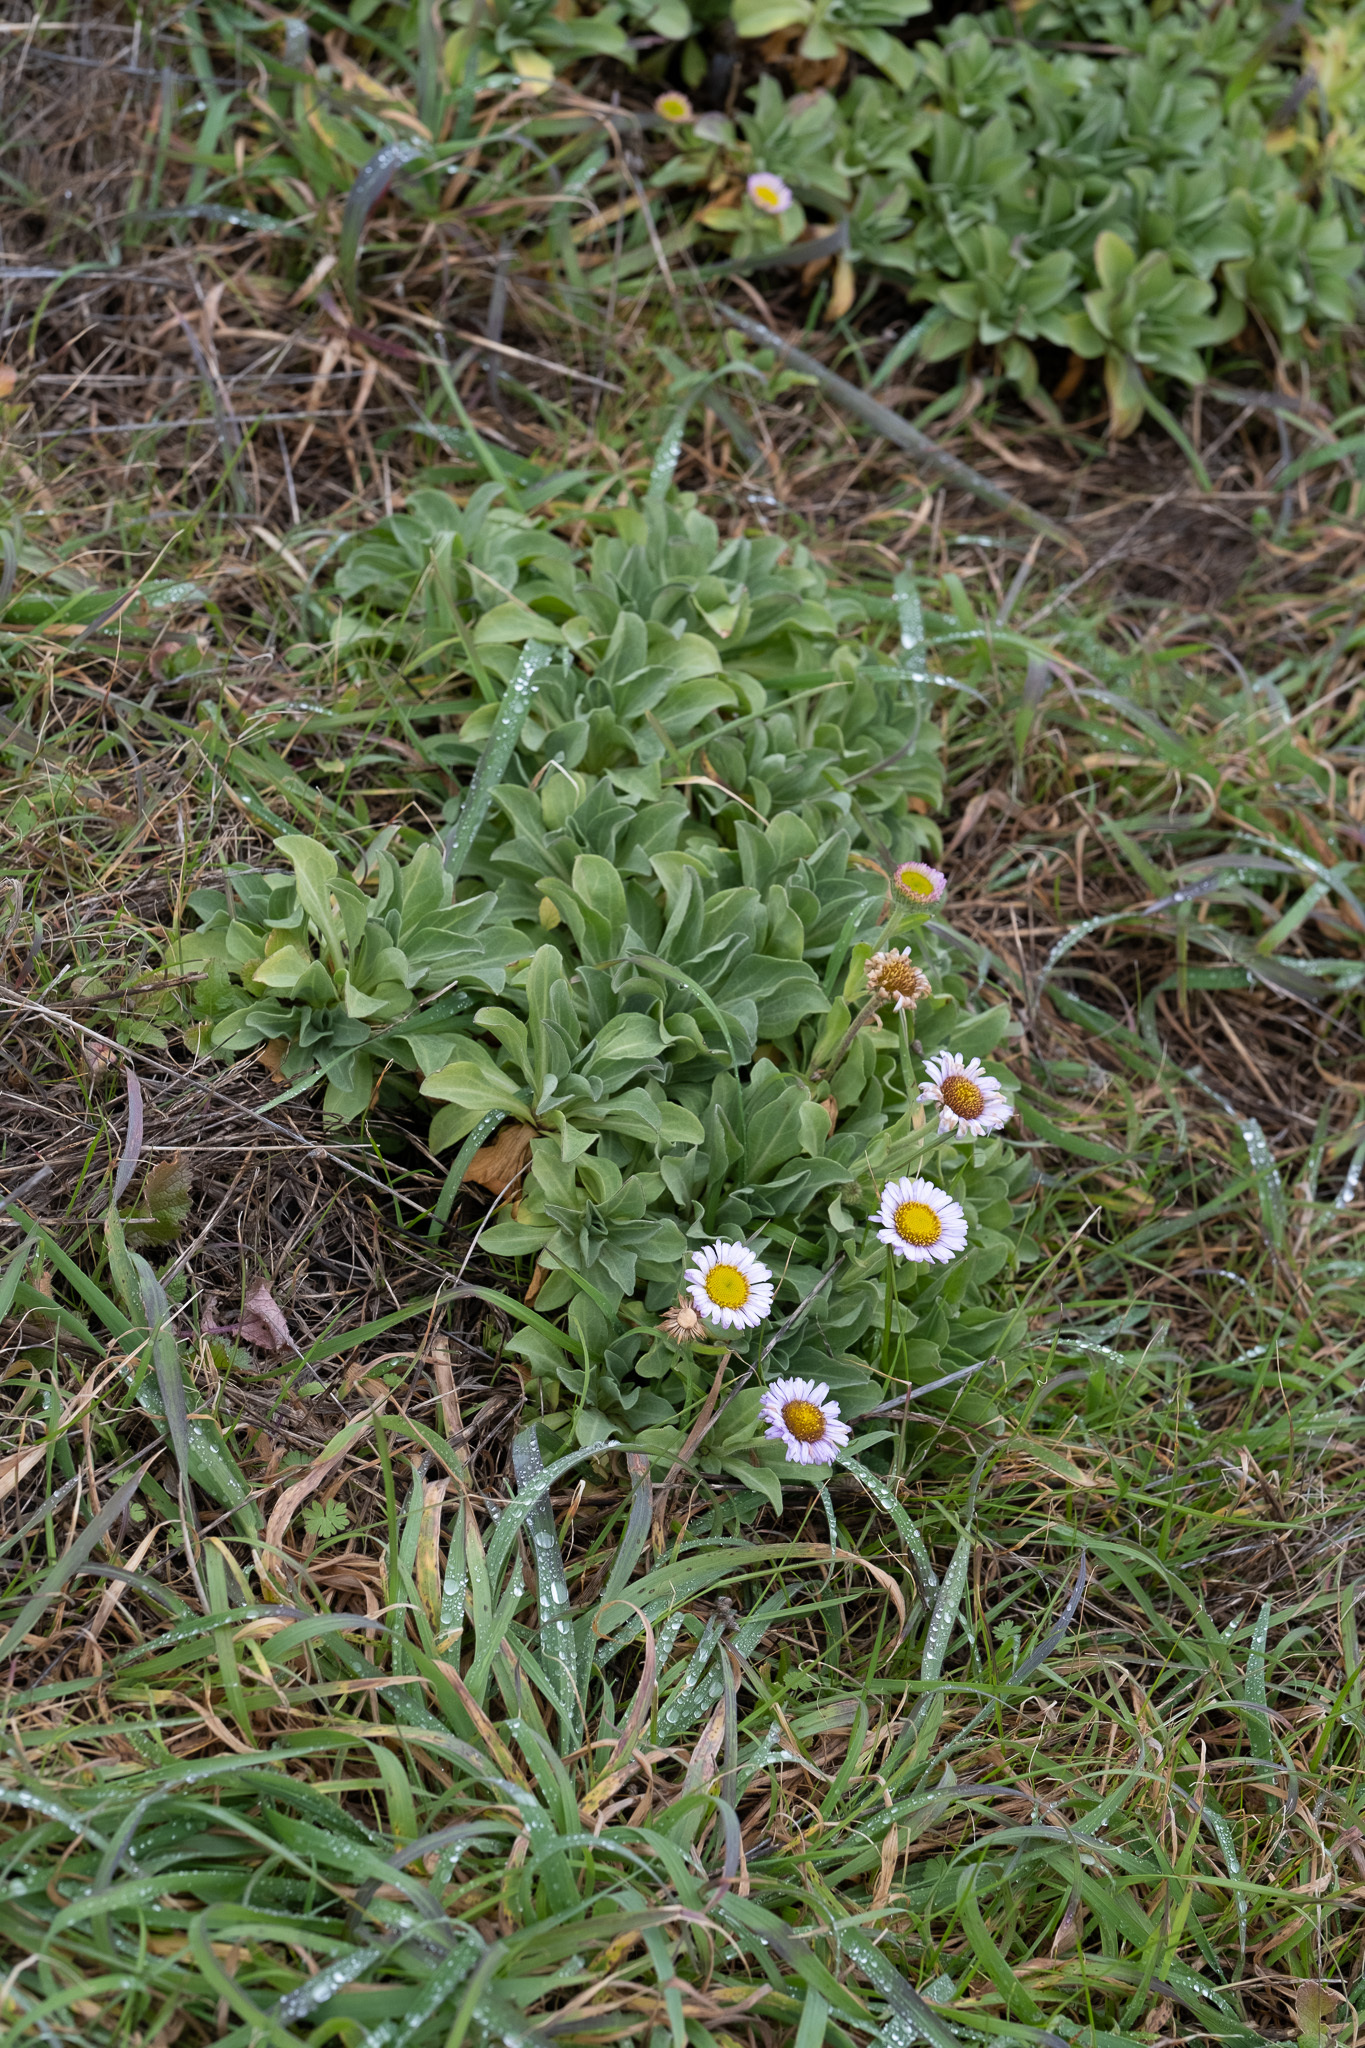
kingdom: Plantae
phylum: Tracheophyta
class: Magnoliopsida
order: Asterales
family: Asteraceae
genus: Erigeron
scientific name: Erigeron glaucus
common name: Seaside daisy
